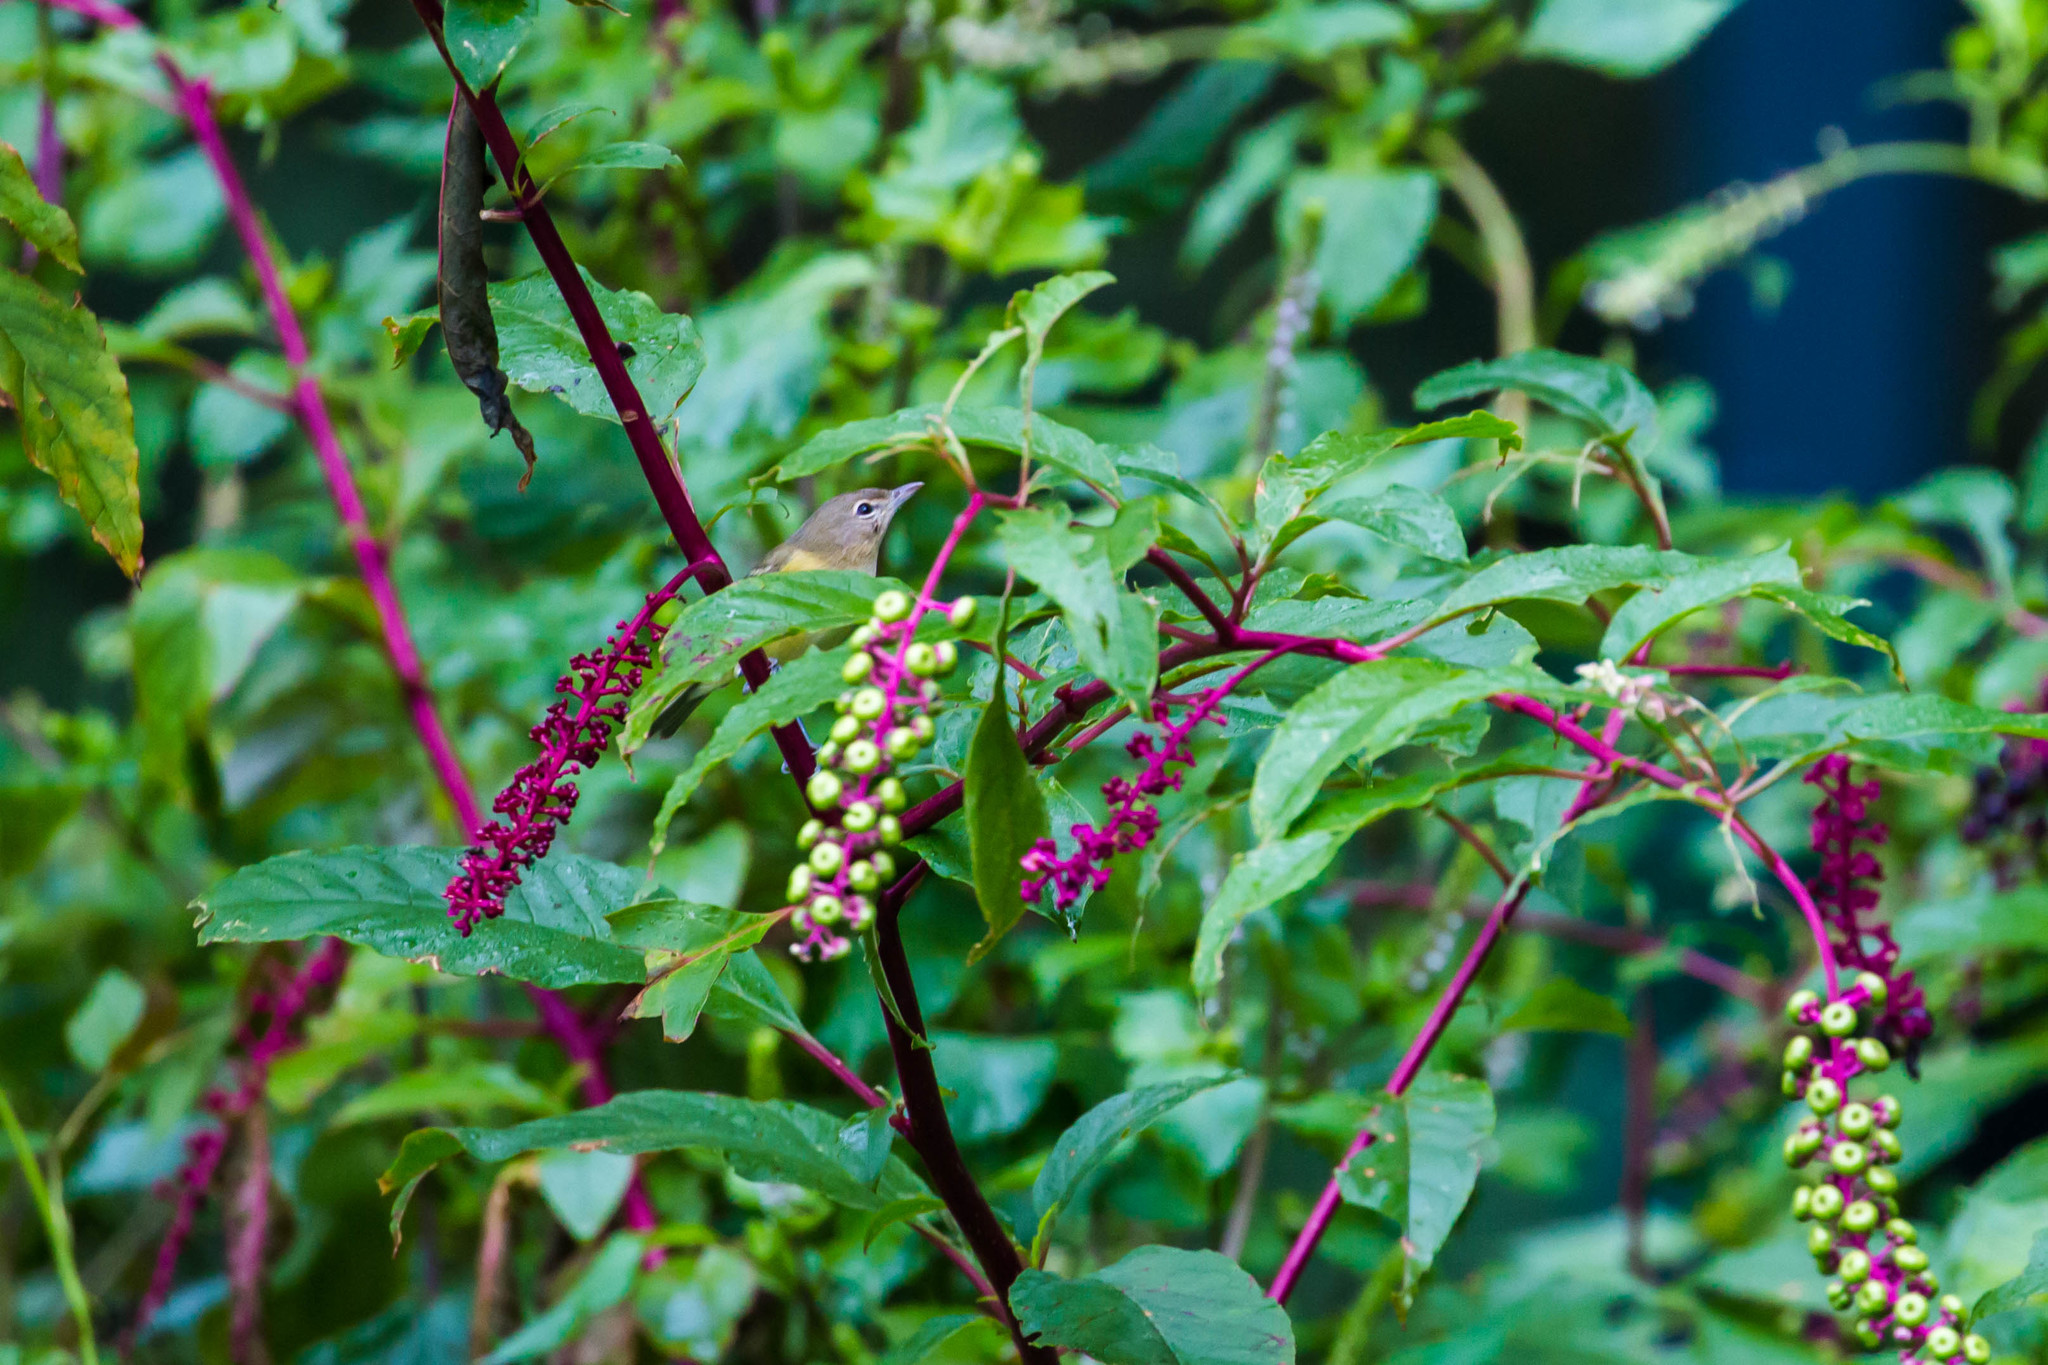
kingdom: Animalia
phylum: Chordata
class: Aves
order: Passeriformes
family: Vireonidae
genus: Vireo
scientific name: Vireo bellii
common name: Bell's vireo
